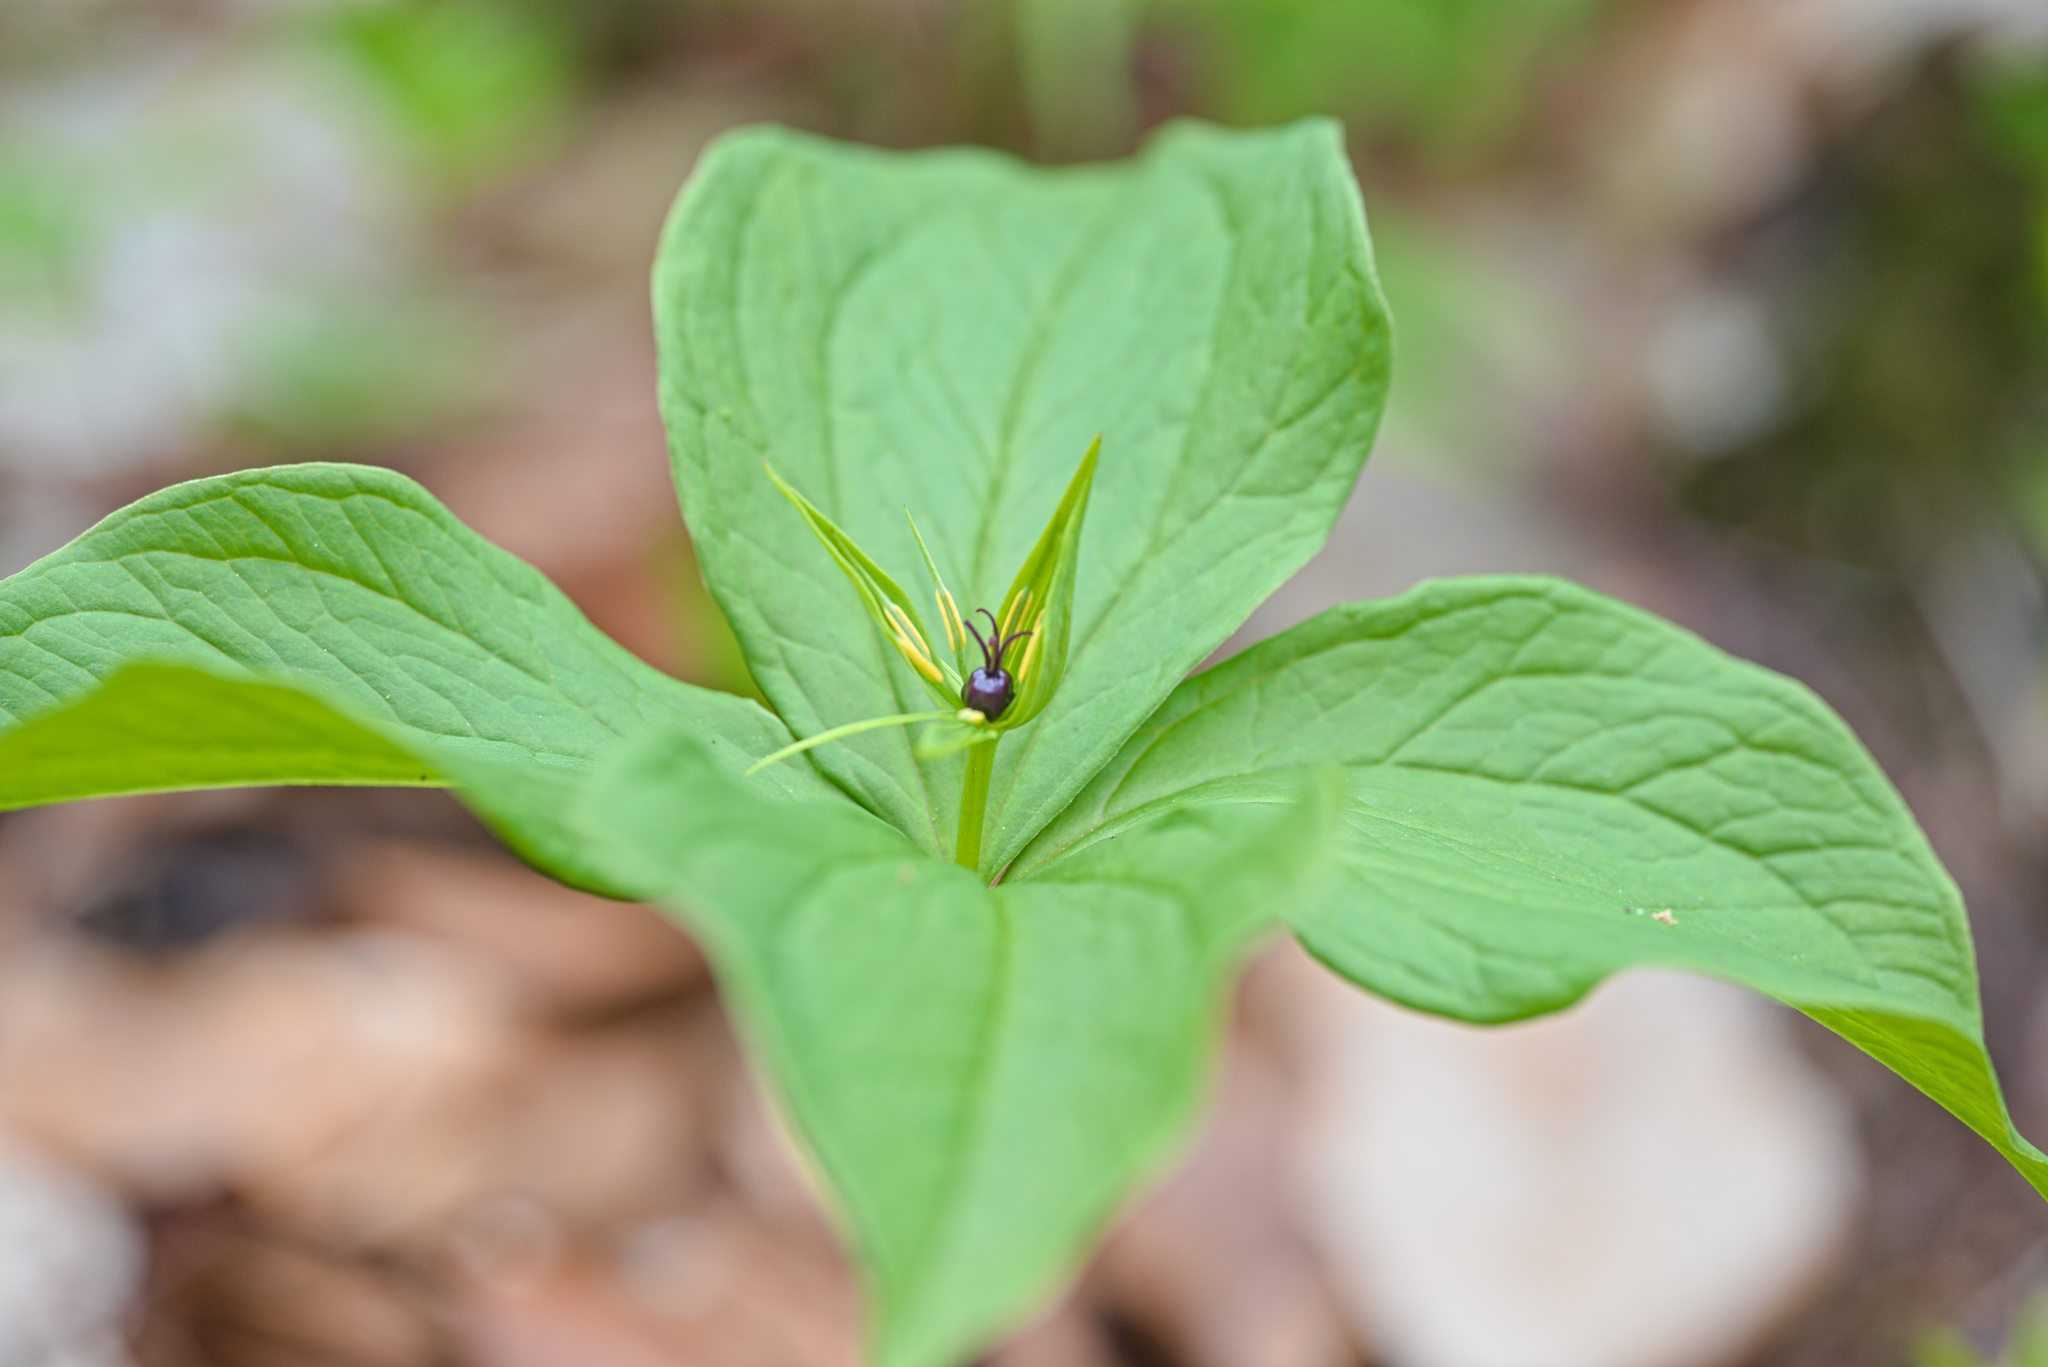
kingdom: Plantae
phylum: Tracheophyta
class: Liliopsida
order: Liliales
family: Melanthiaceae
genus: Paris
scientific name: Paris quadrifolia
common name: Herb-paris
